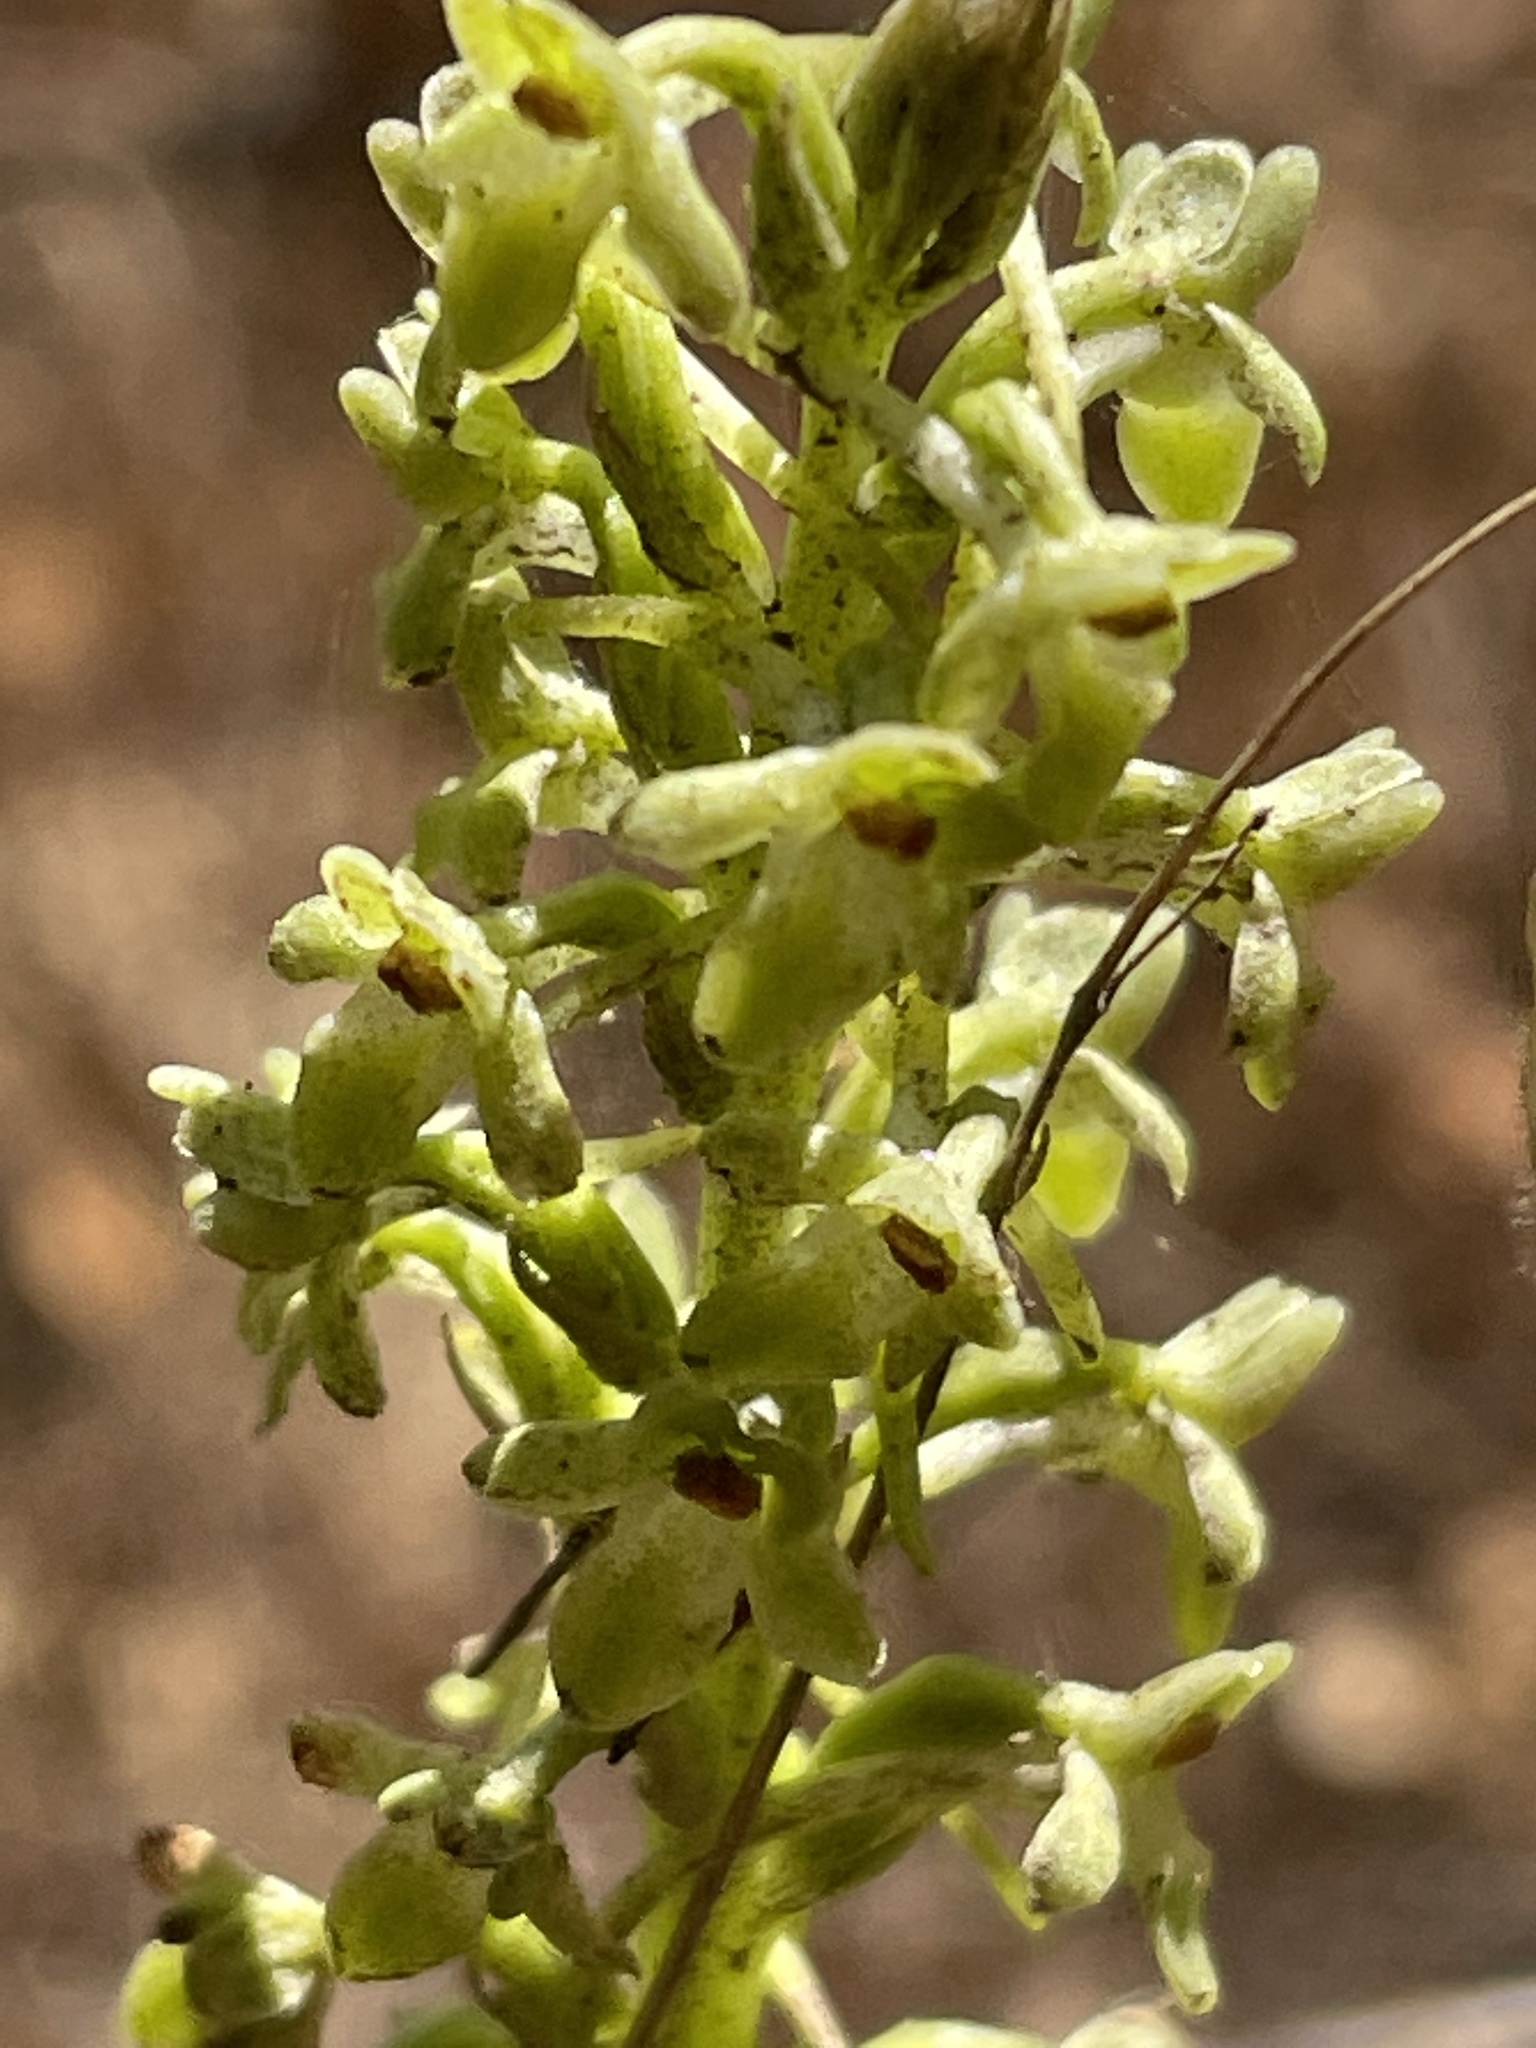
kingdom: Plantae
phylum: Tracheophyta
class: Liliopsida
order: Asparagales
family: Orchidaceae
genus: Platanthera
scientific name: Platanthera michaelii
